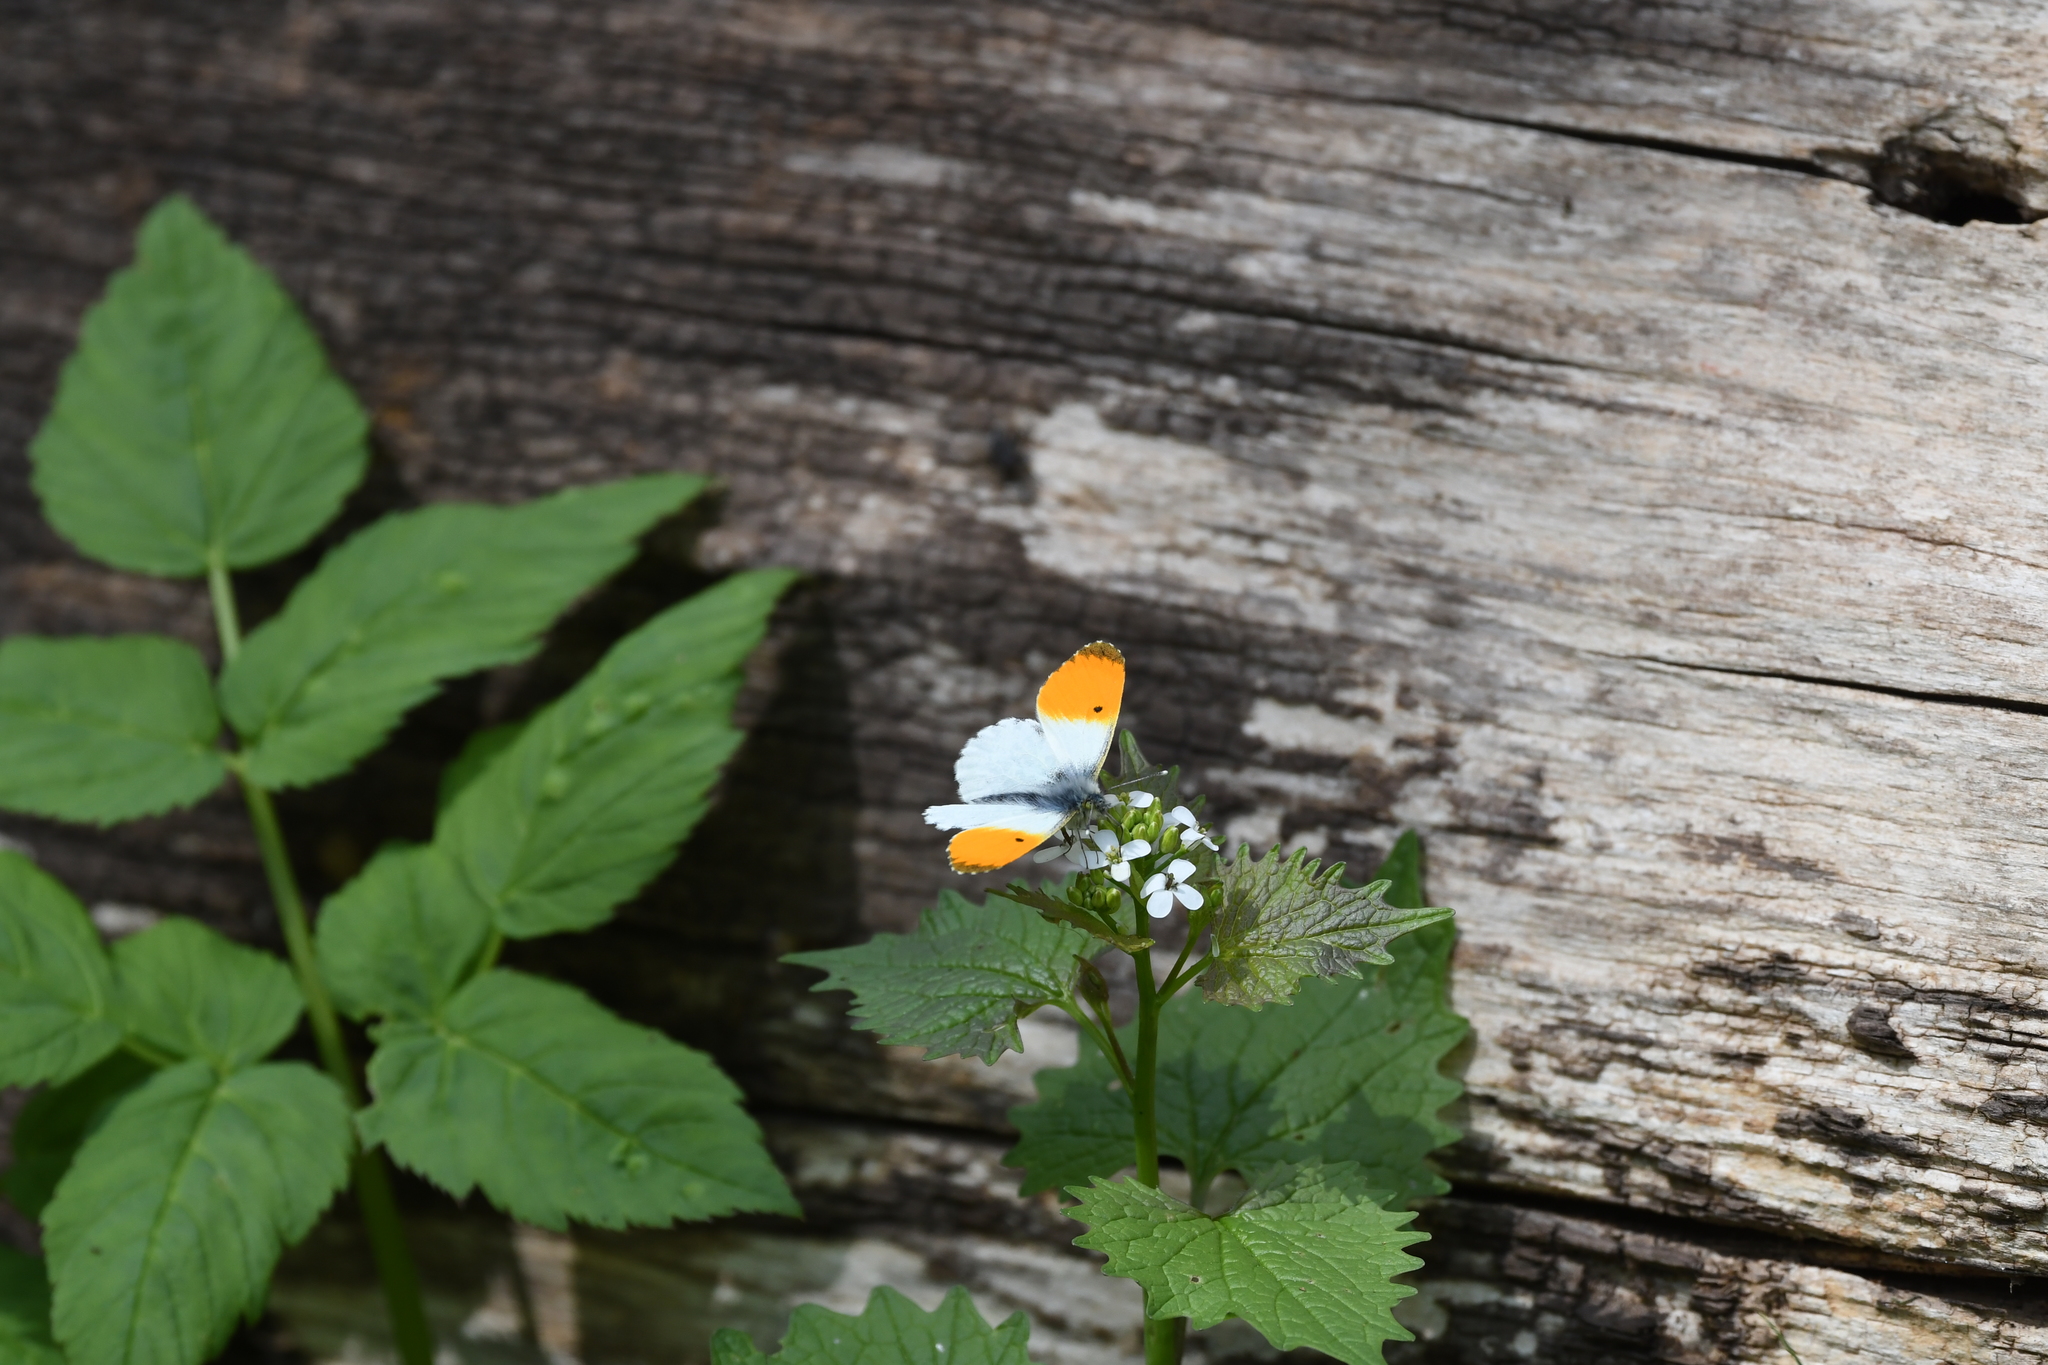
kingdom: Animalia
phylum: Arthropoda
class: Insecta
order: Lepidoptera
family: Pieridae
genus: Anthocharis
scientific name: Anthocharis cardamines
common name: Orange-tip
